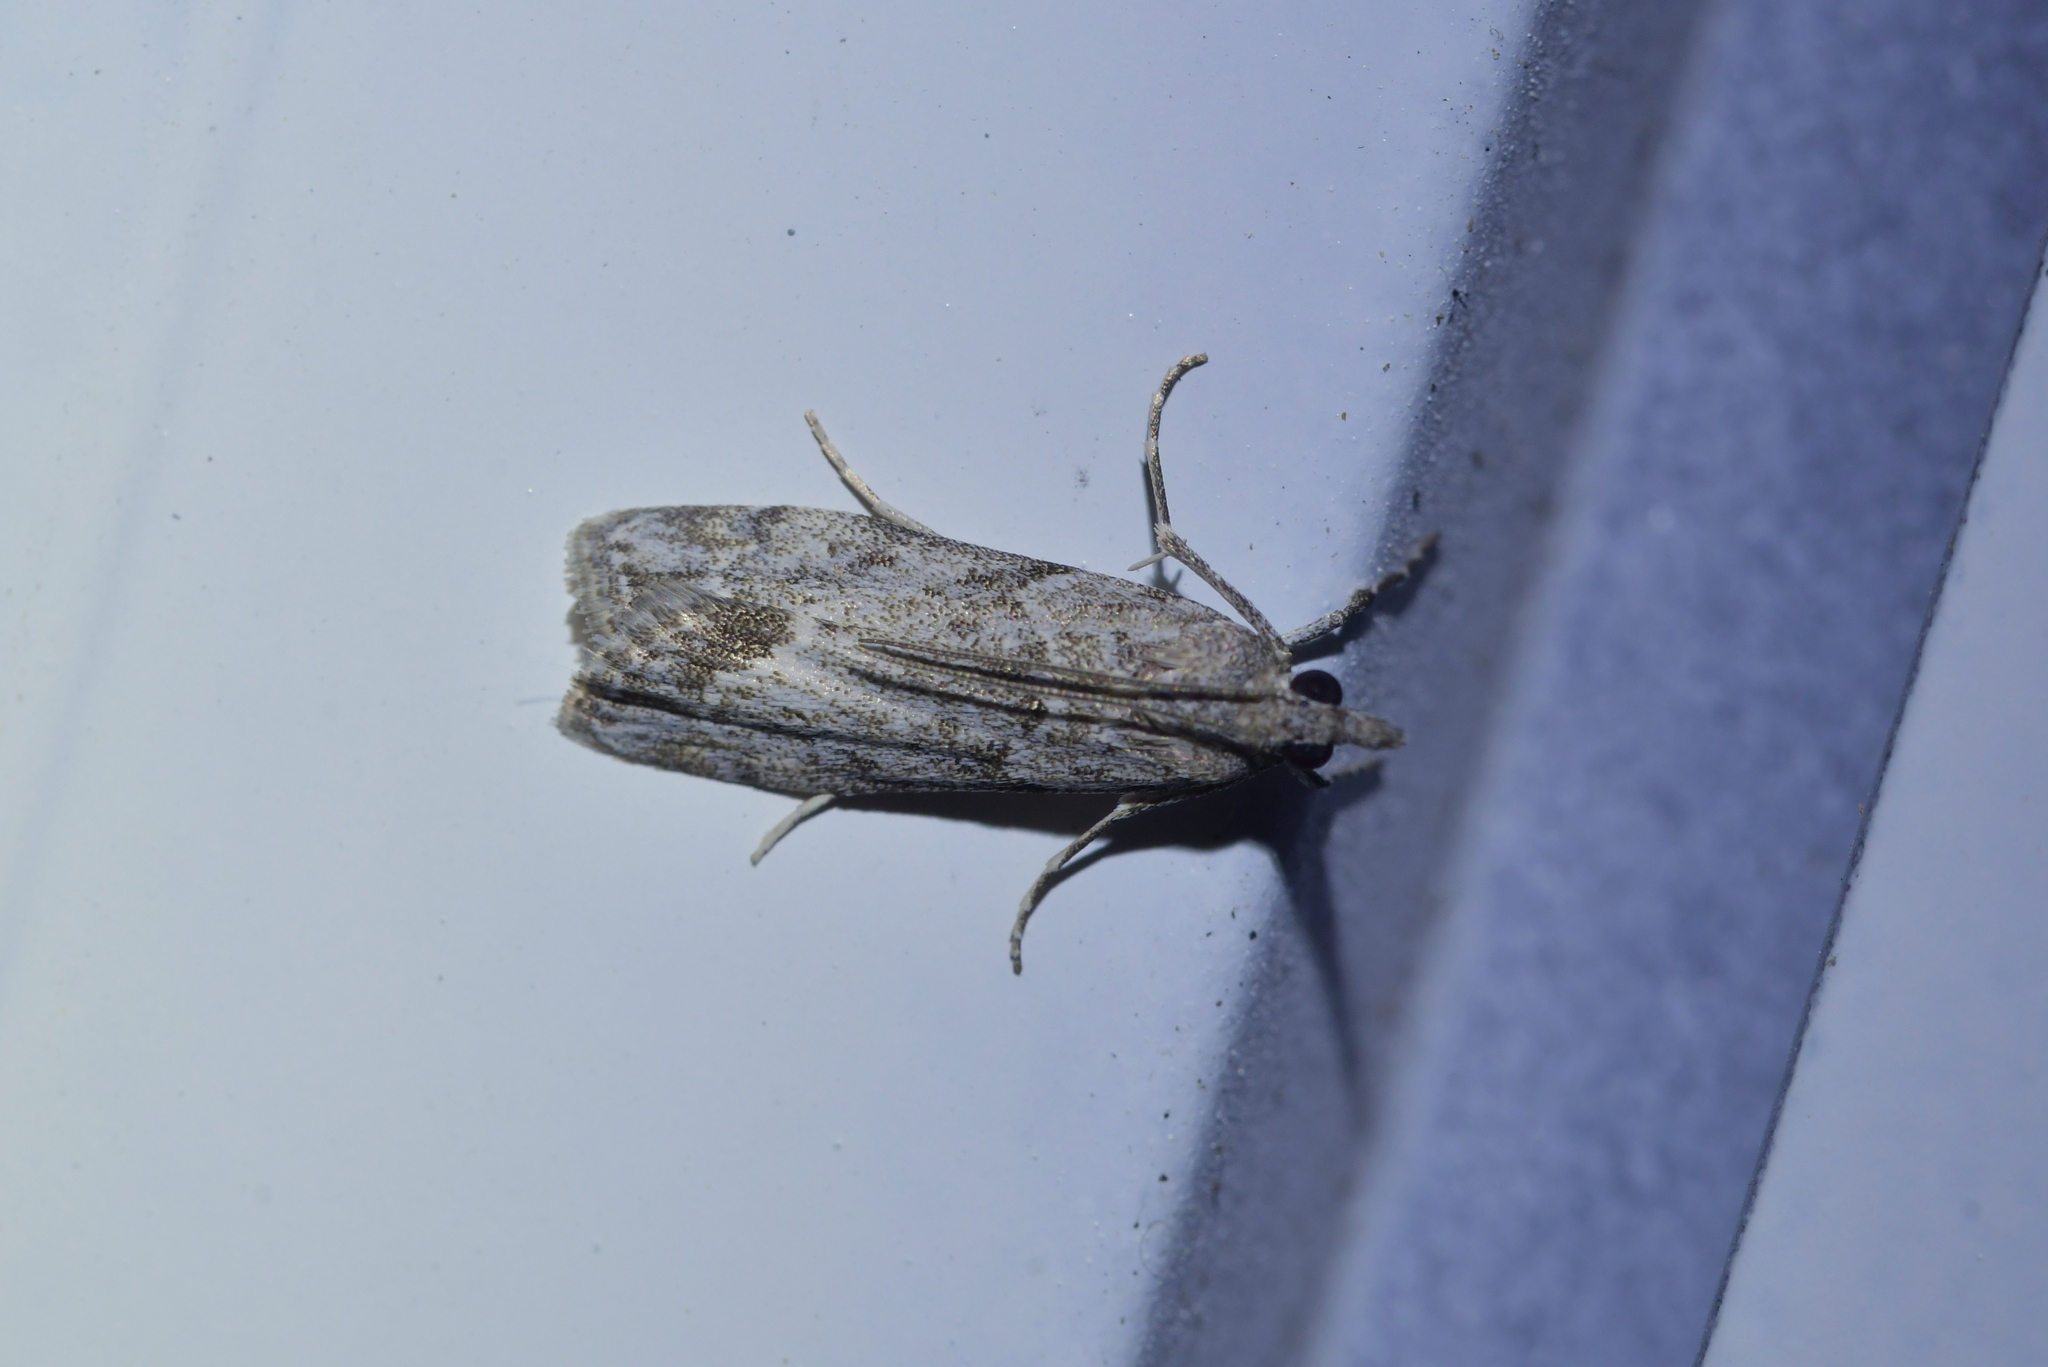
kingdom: Animalia
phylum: Arthropoda
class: Insecta
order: Lepidoptera
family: Crambidae
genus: Eudonia
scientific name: Eudonia rakaiensis
